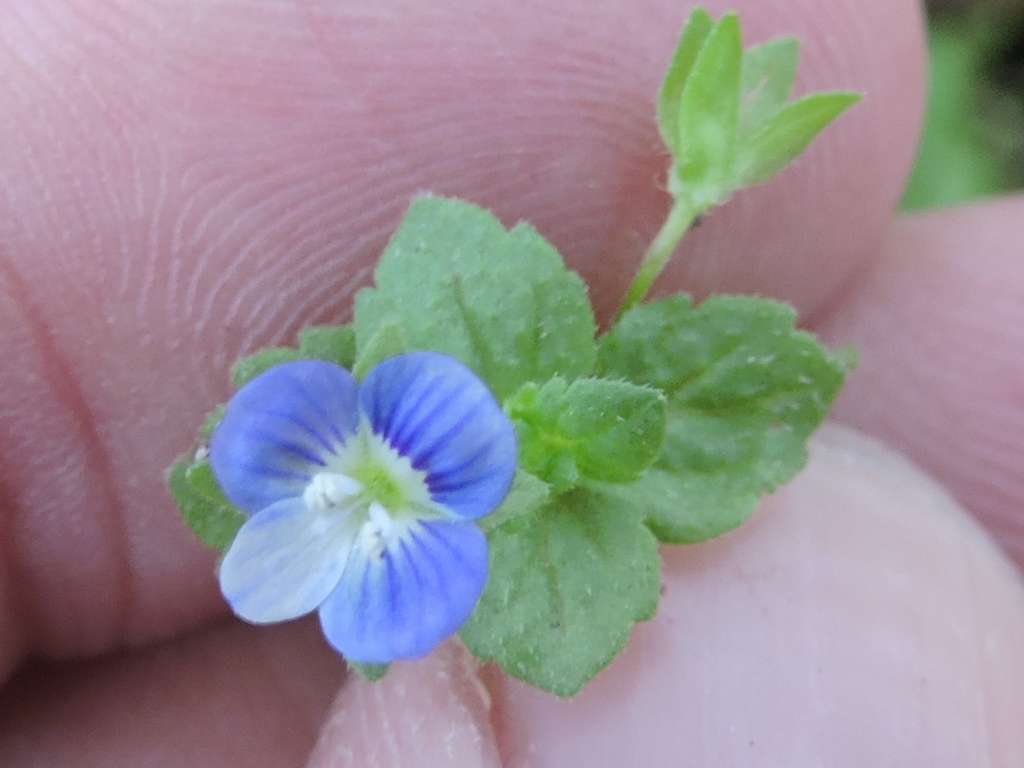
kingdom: Plantae
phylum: Tracheophyta
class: Magnoliopsida
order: Lamiales
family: Plantaginaceae
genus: Veronica
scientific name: Veronica persica
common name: Common field-speedwell
